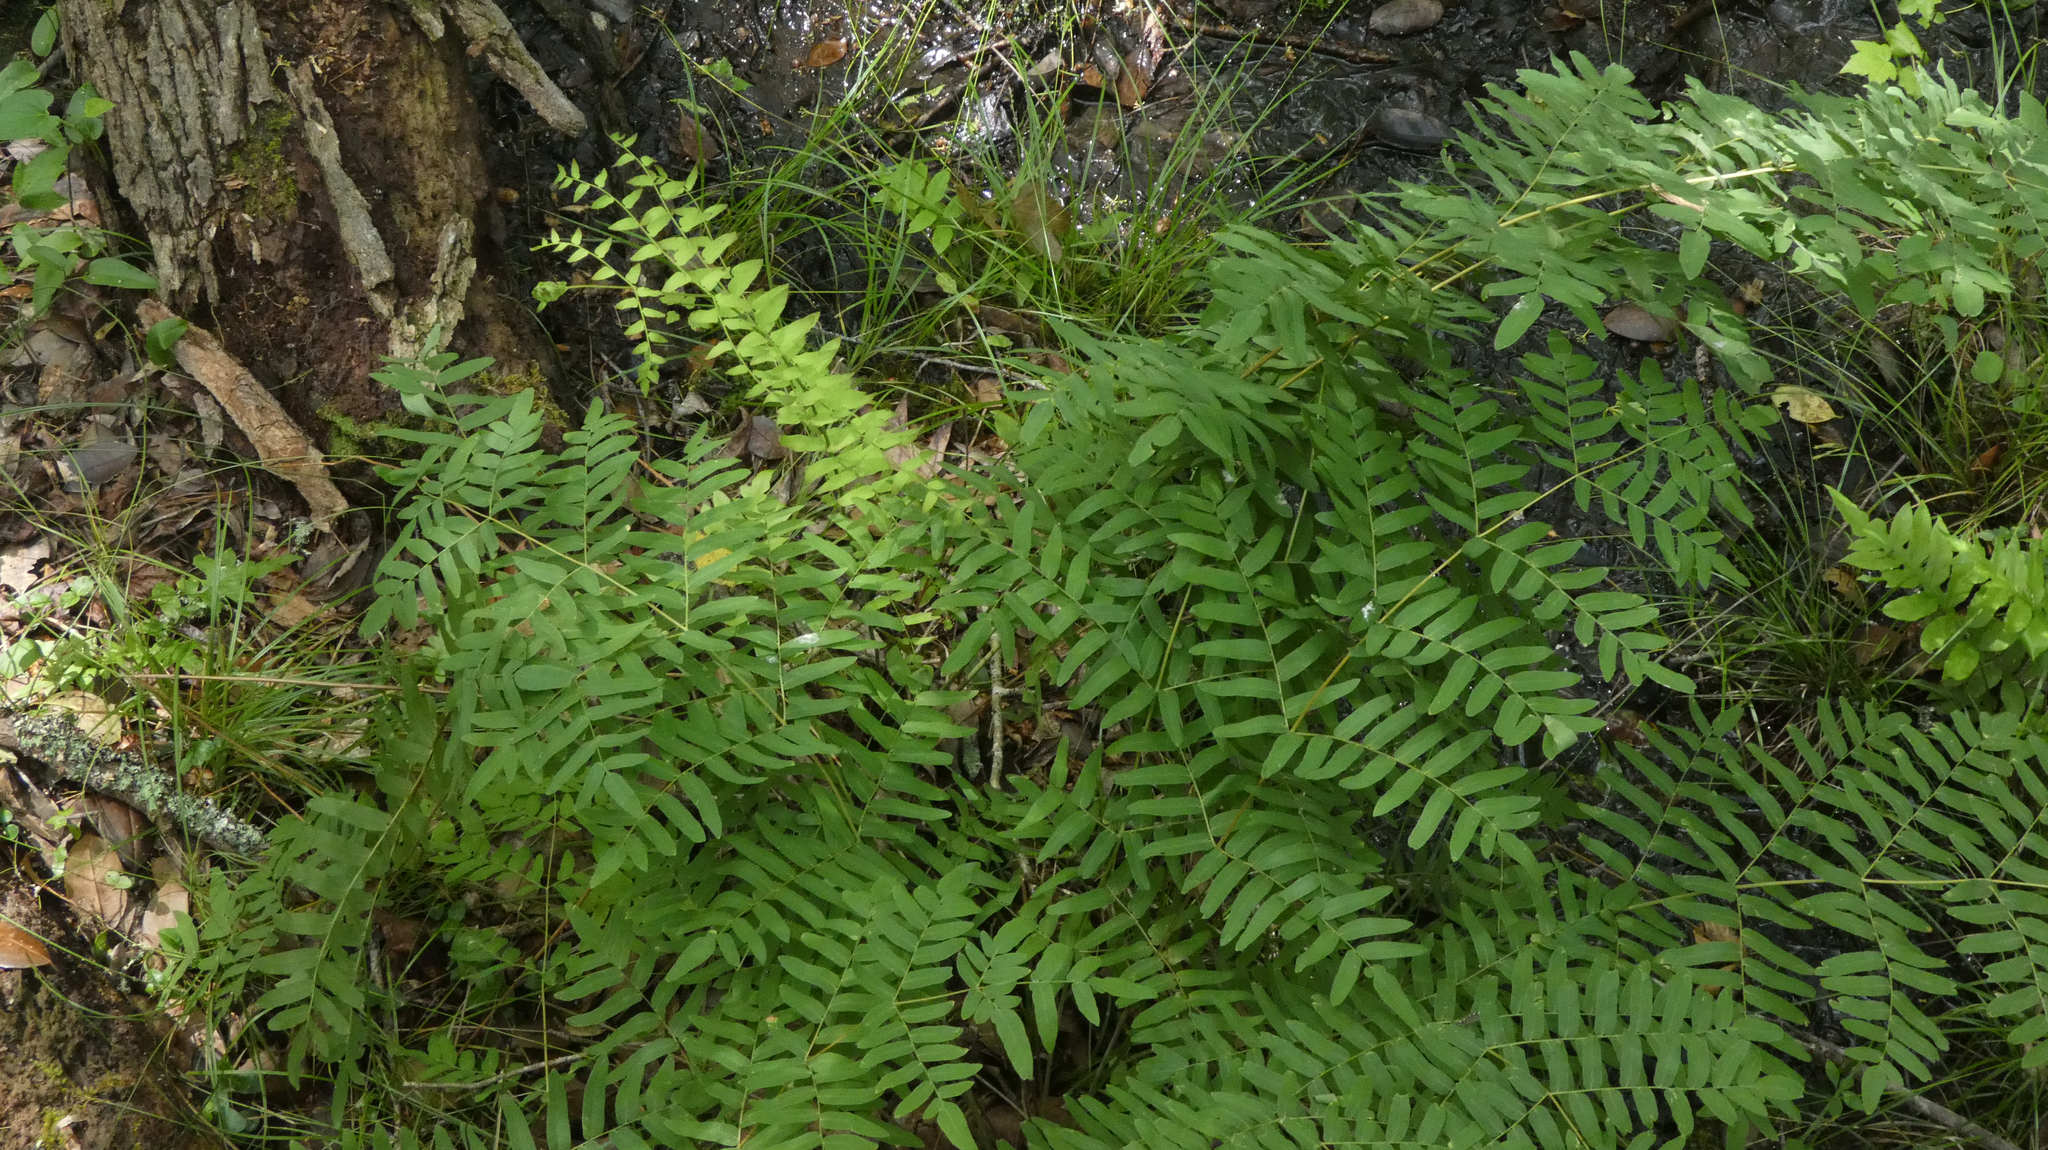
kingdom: Plantae
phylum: Tracheophyta
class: Polypodiopsida
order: Osmundales
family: Osmundaceae
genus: Osmunda
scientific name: Osmunda spectabilis
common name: American royal fern
